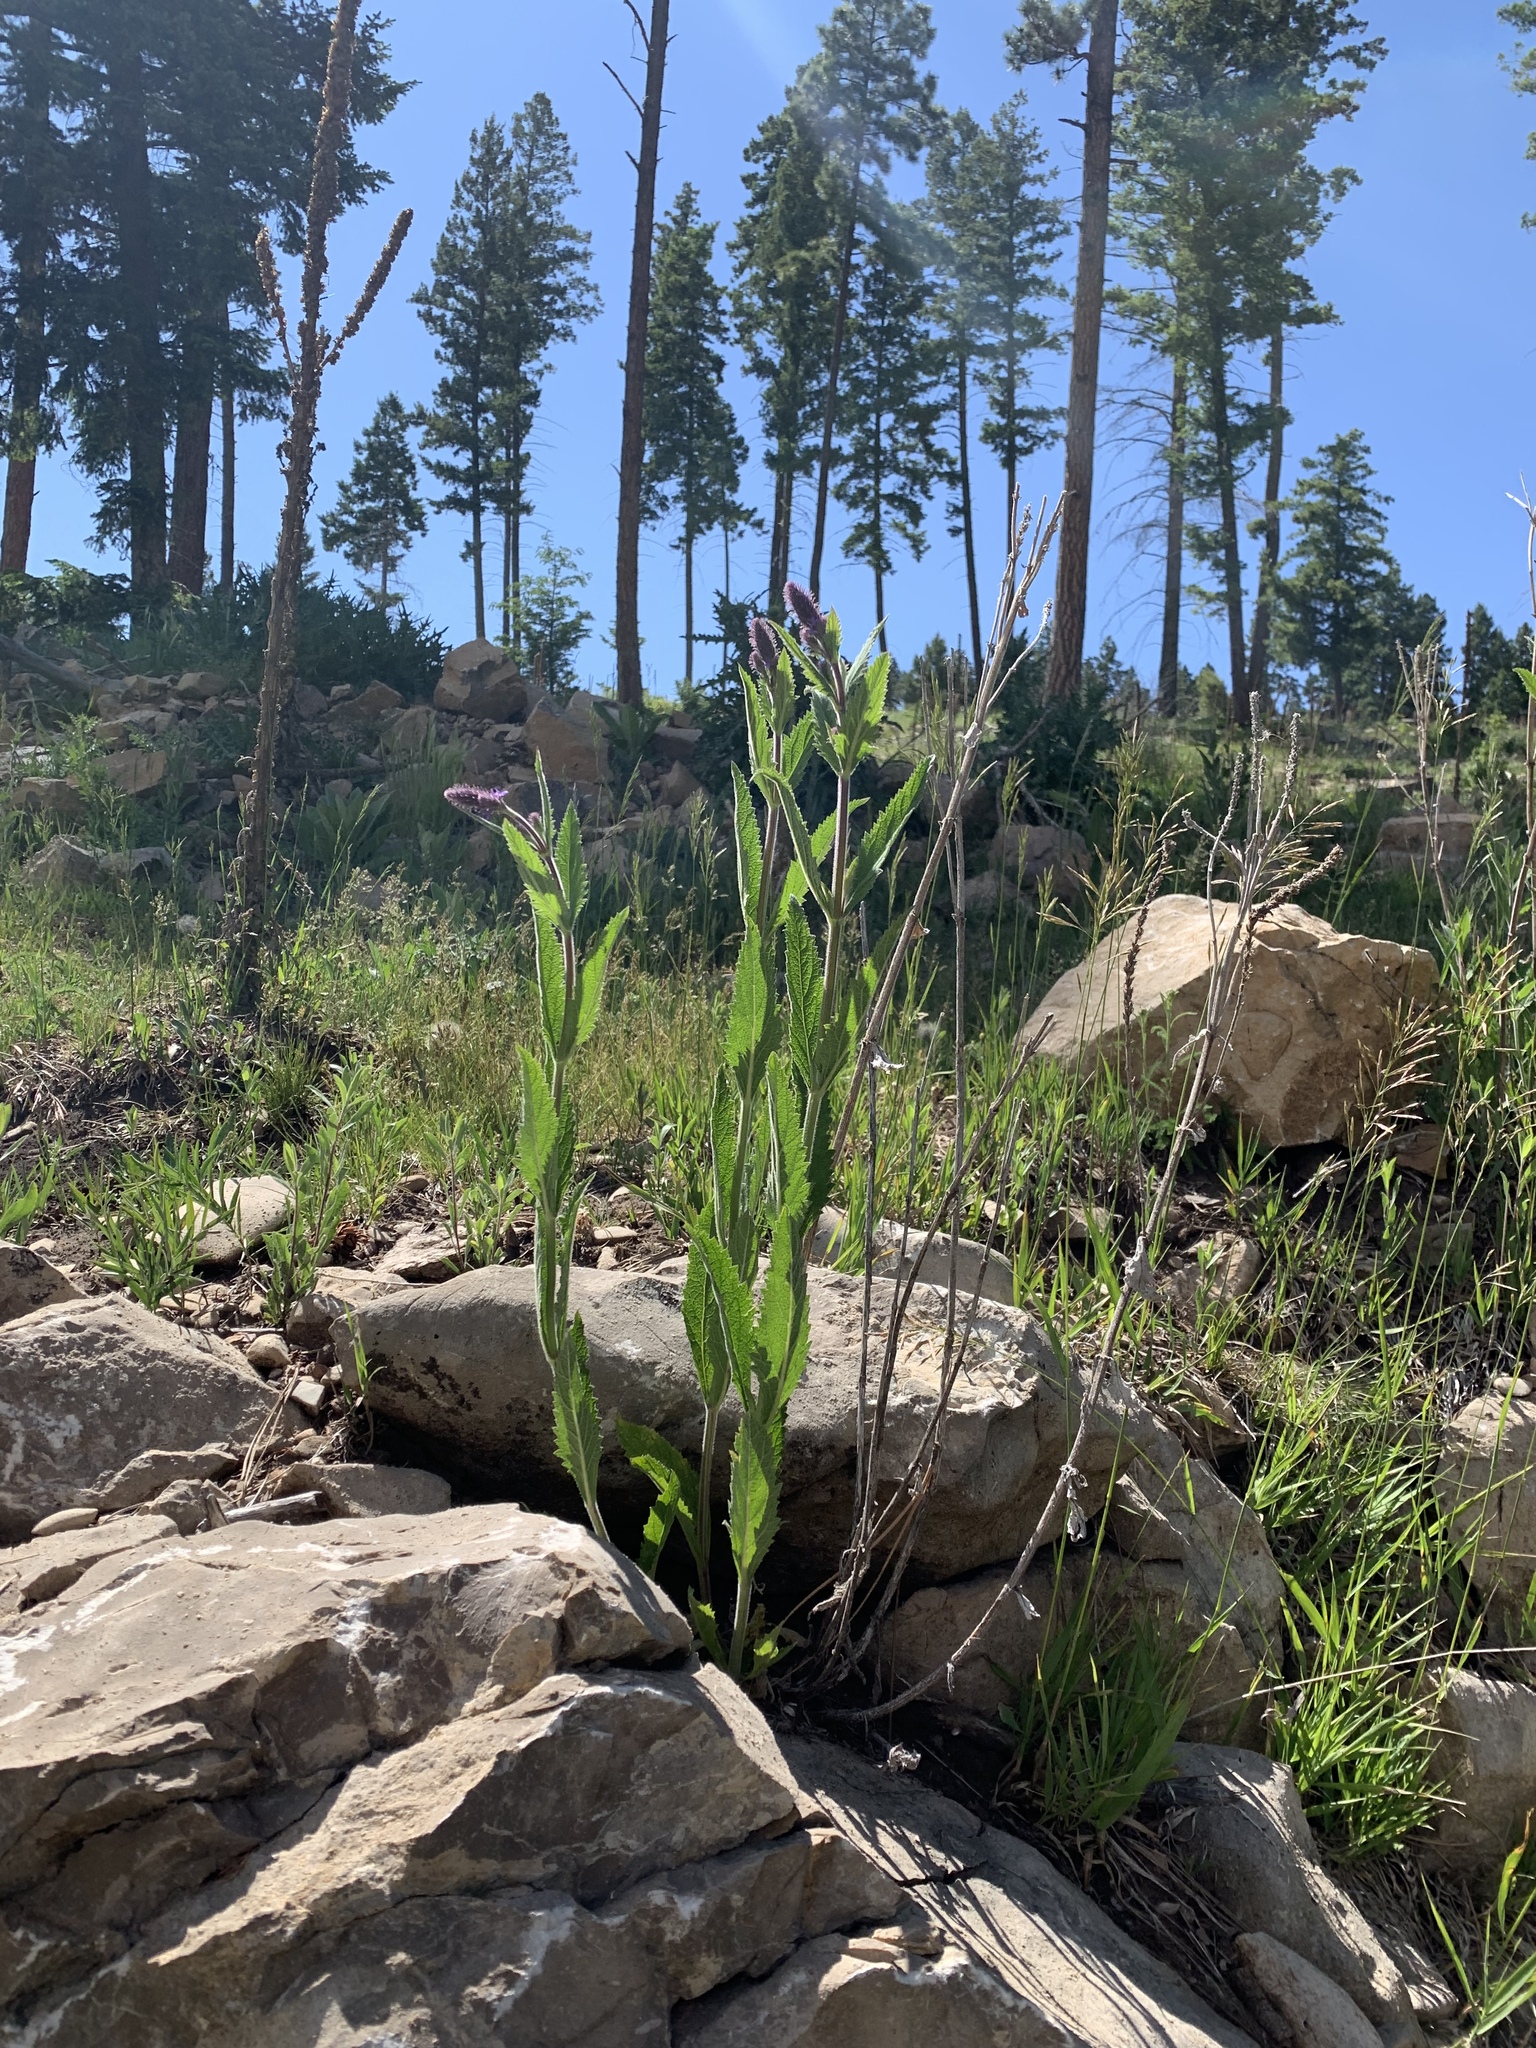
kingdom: Plantae
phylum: Tracheophyta
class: Magnoliopsida
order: Lamiales
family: Verbenaceae
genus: Verbena
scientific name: Verbena macdougalii
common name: New mexico vervain
